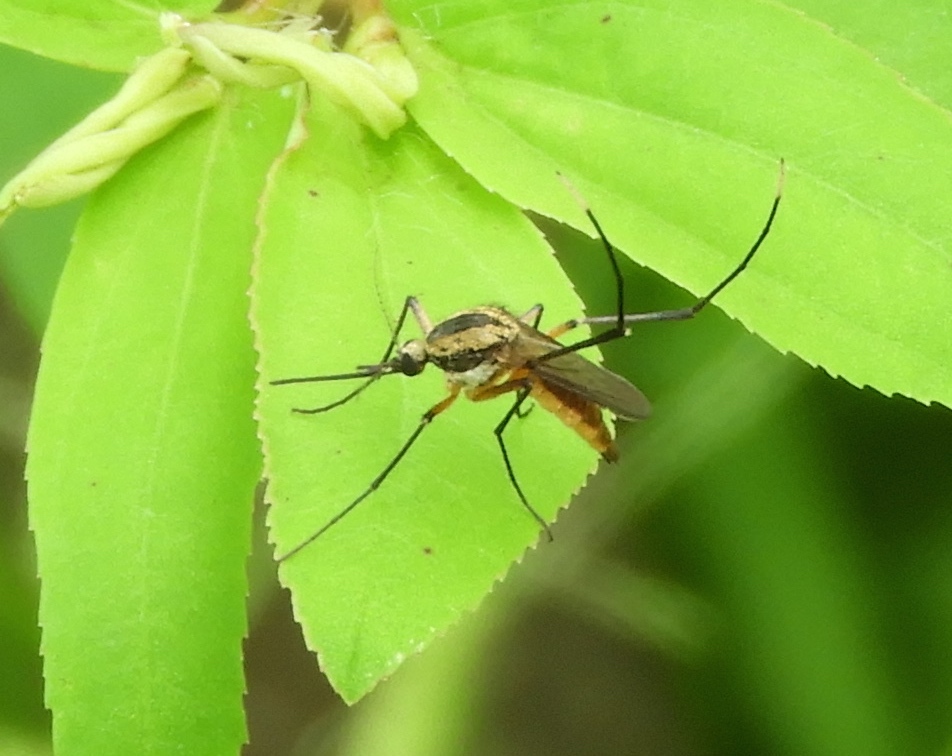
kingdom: Animalia
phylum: Arthropoda
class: Insecta
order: Diptera
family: Culicidae
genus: Janthinosoma
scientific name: Janthinosoma
